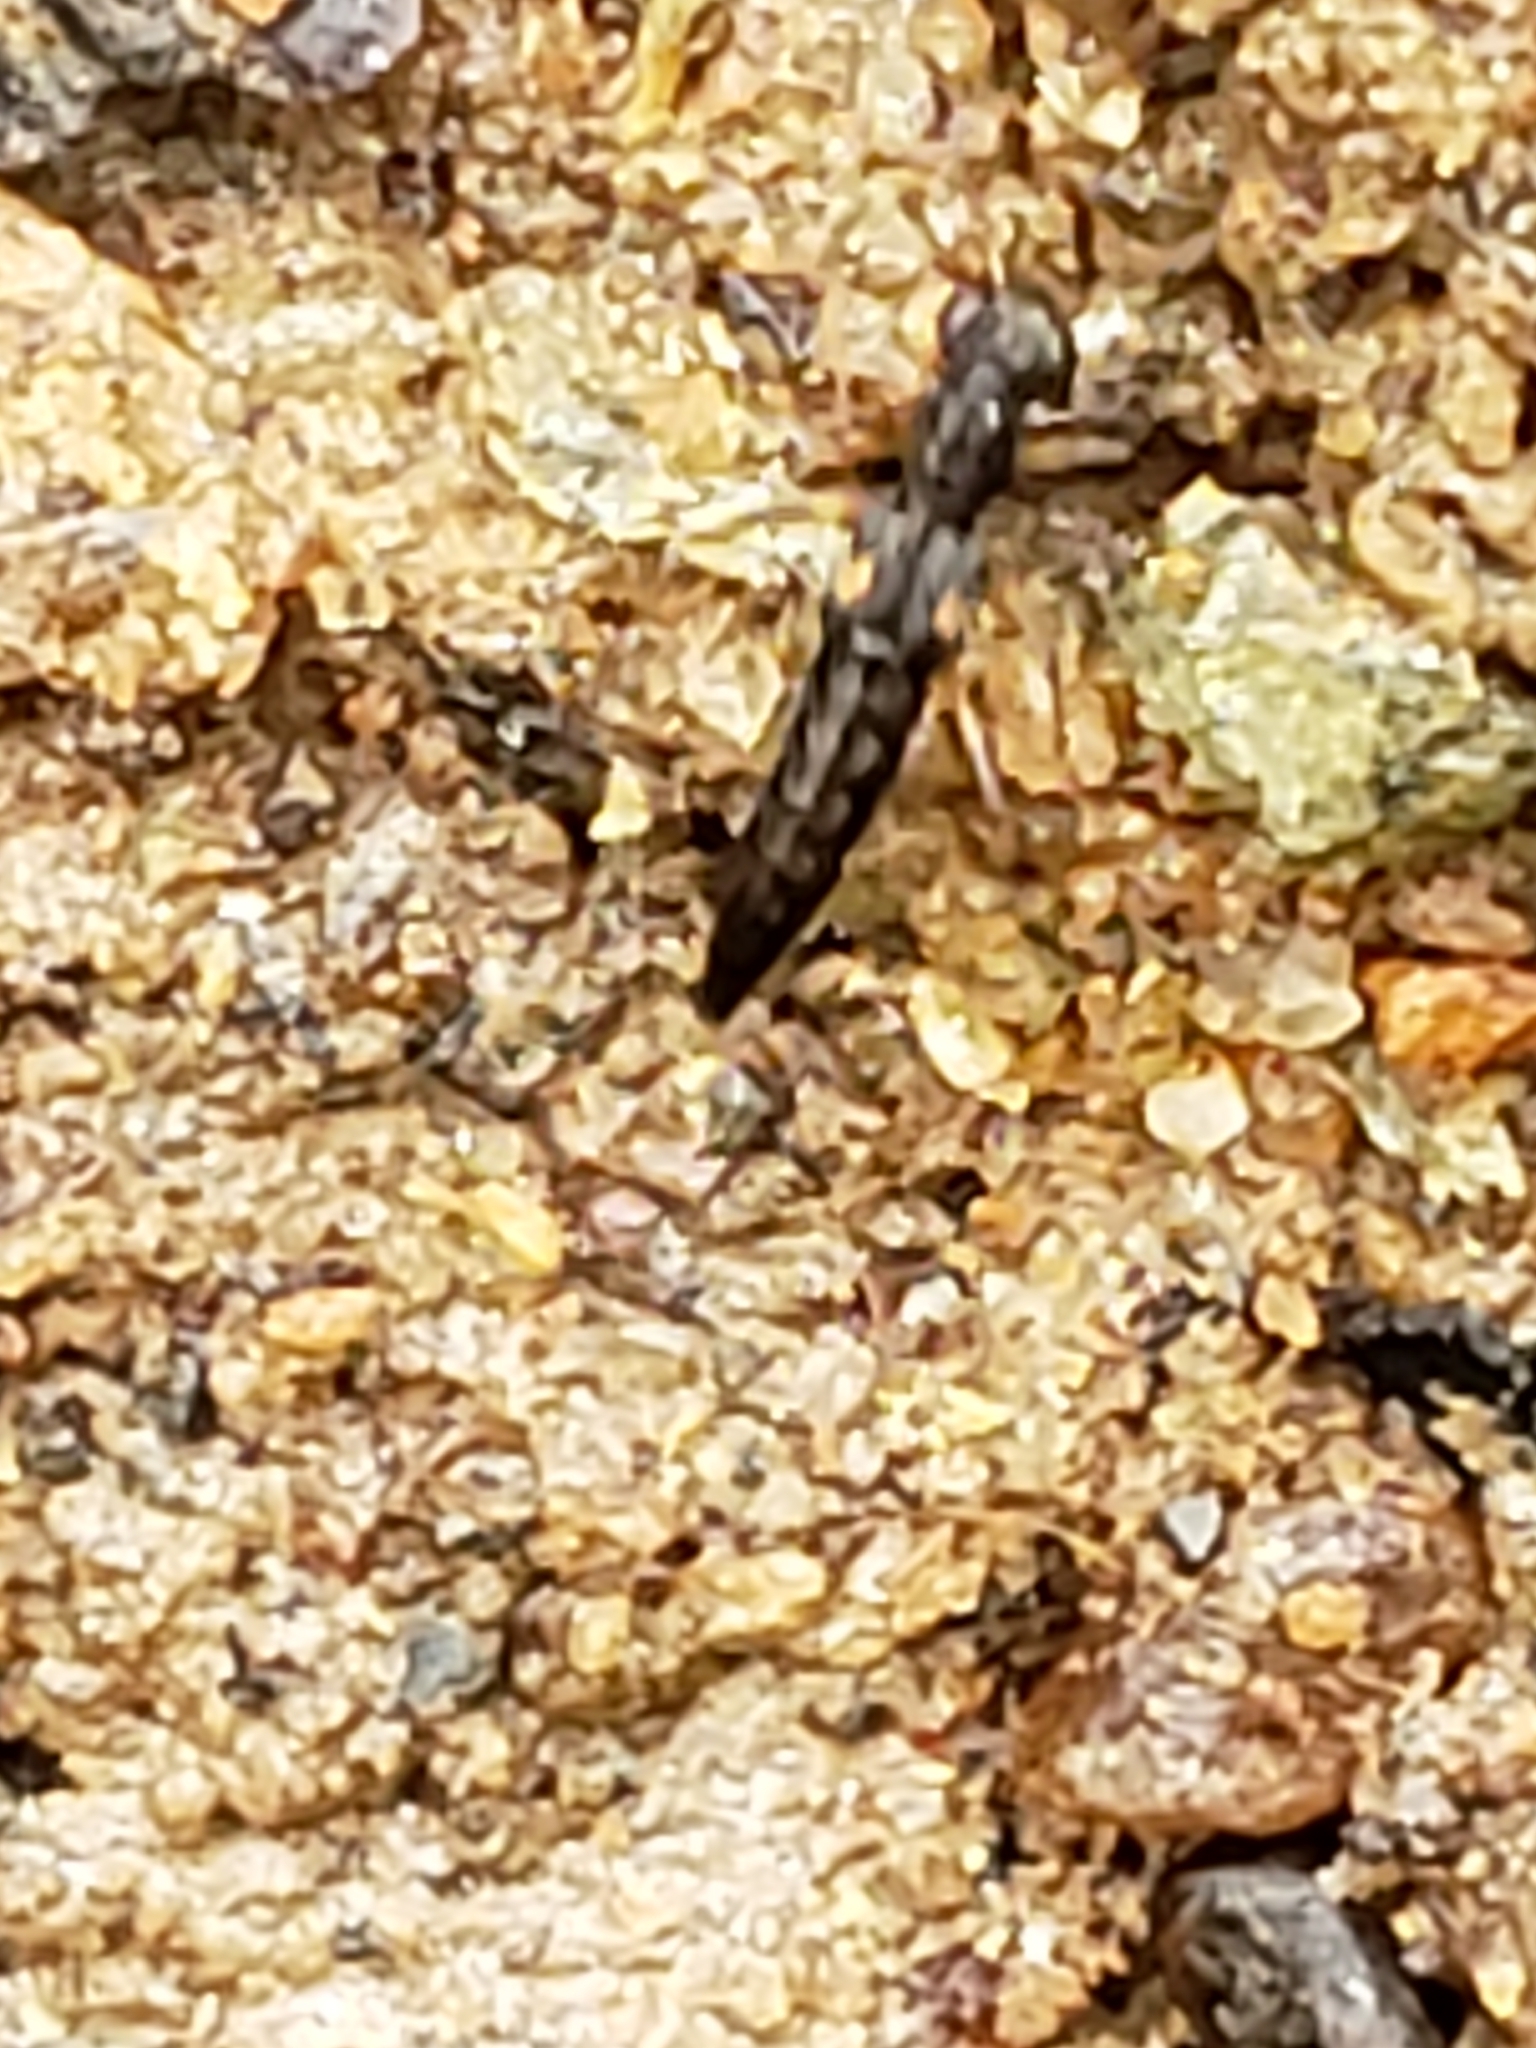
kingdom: Animalia
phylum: Arthropoda
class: Insecta
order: Coleoptera
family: Staphylinidae
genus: Stenus
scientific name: Stenus colon
